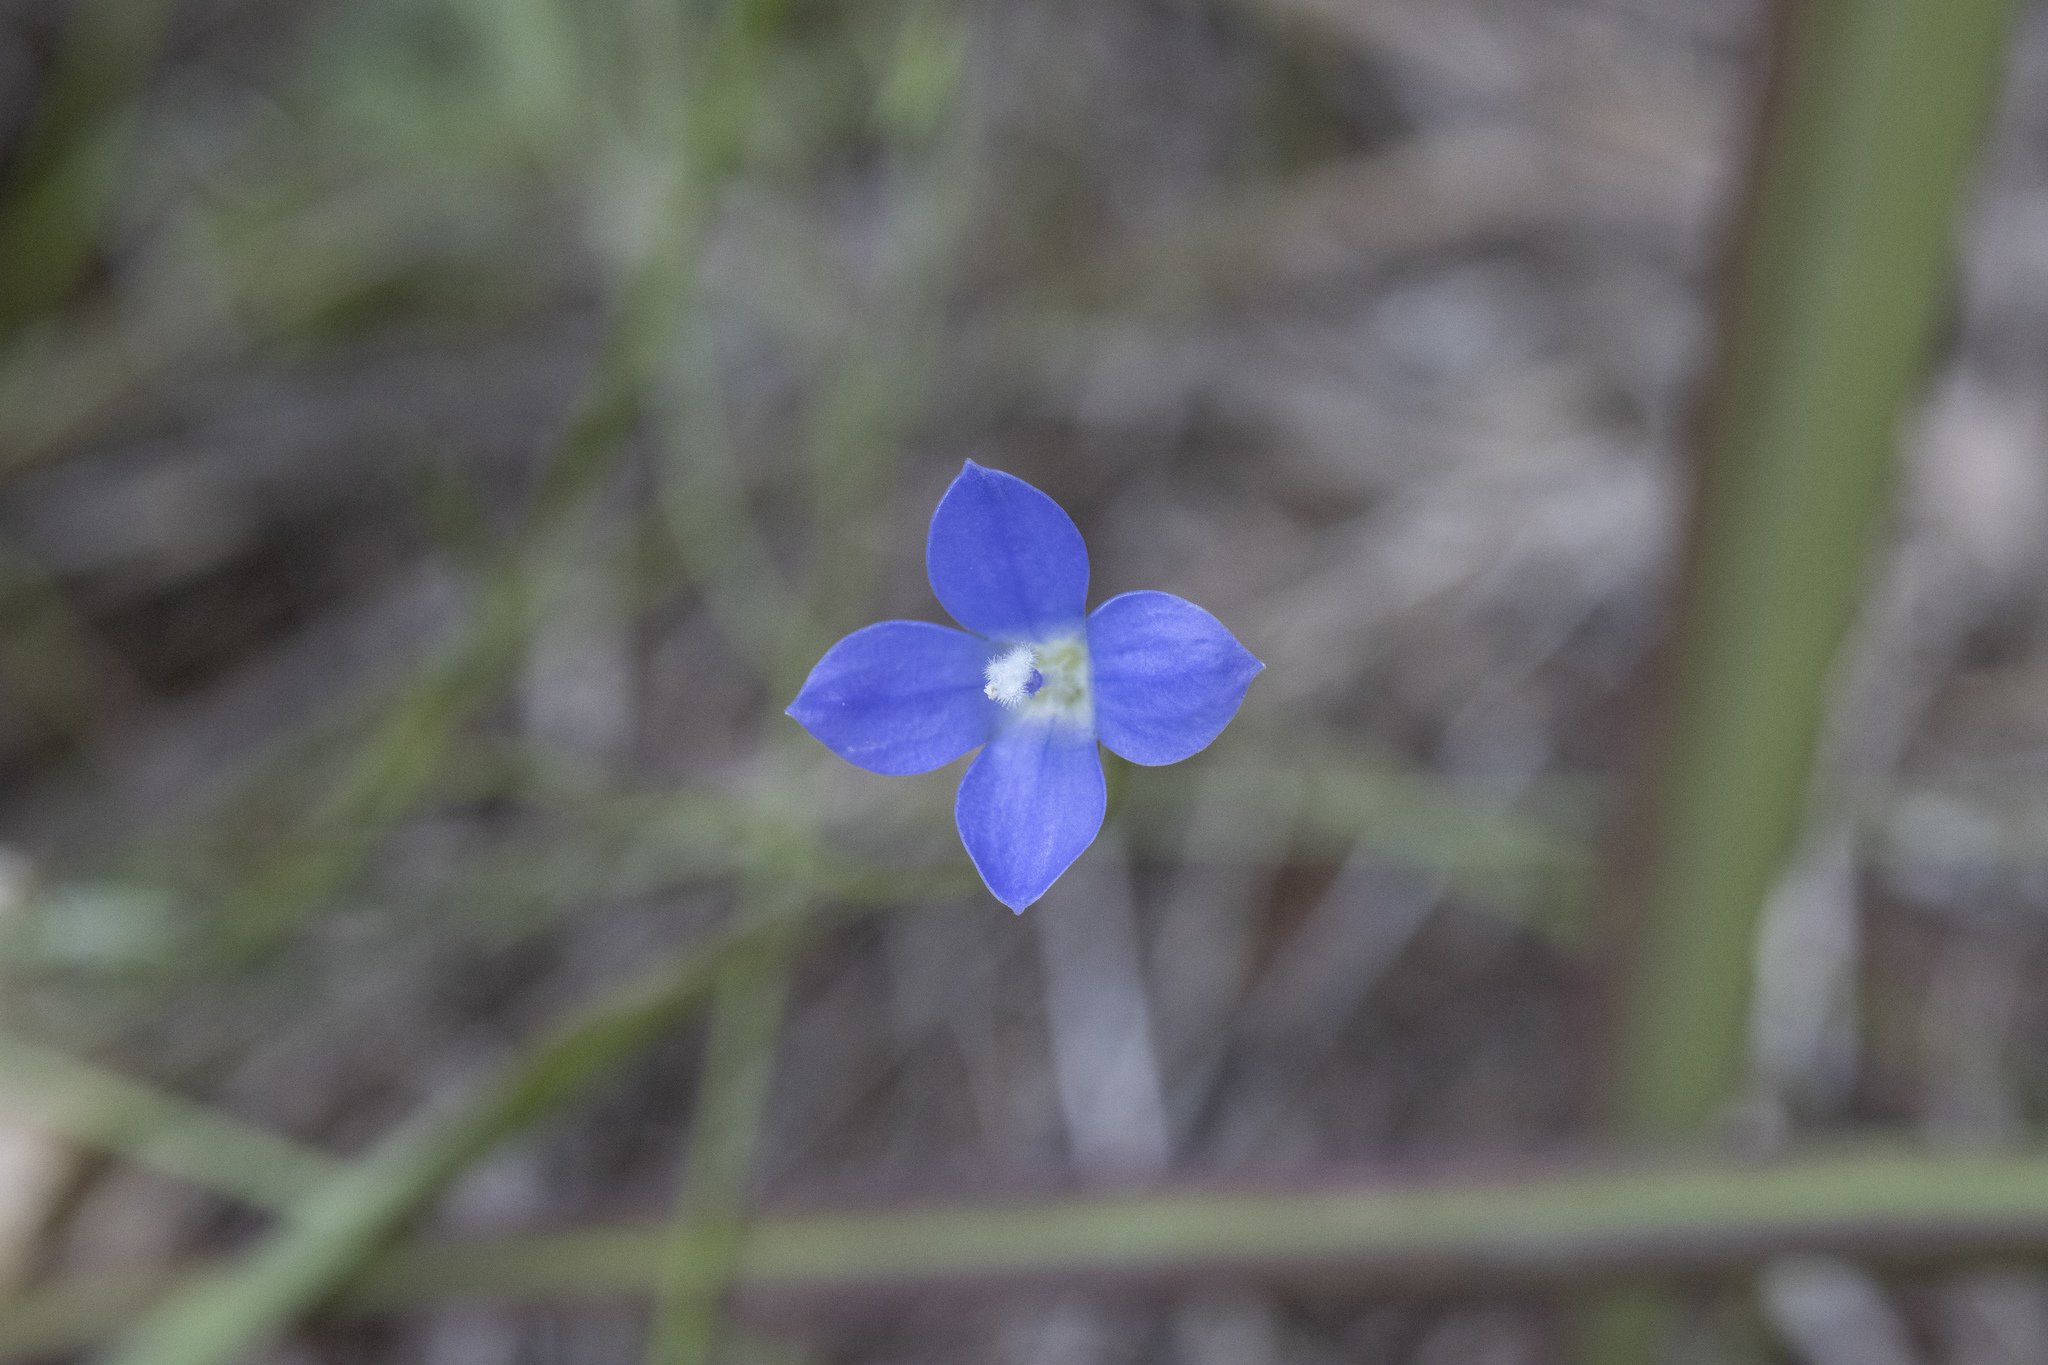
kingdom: Plantae
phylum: Tracheophyta
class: Magnoliopsida
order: Asterales
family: Campanulaceae
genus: Wahlenbergia
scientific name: Wahlenbergia violacea
